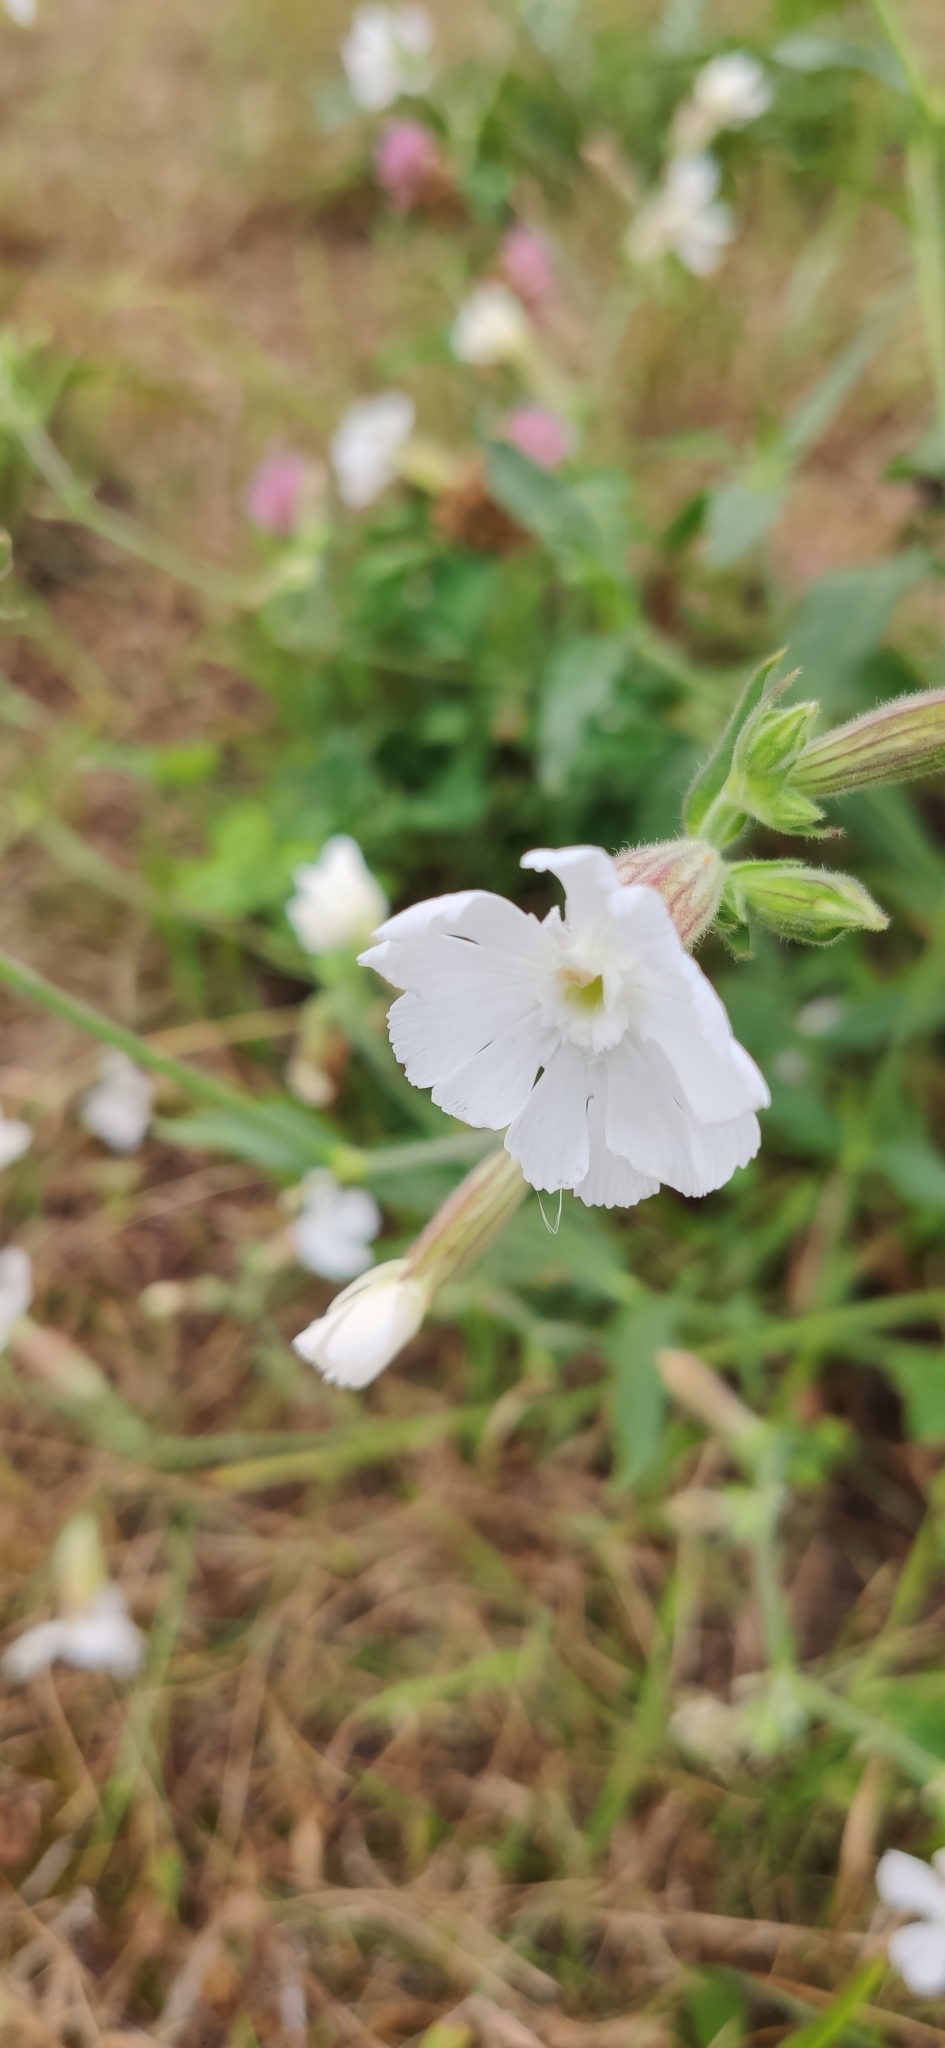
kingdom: Plantae
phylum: Tracheophyta
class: Magnoliopsida
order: Caryophyllales
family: Caryophyllaceae
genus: Silene
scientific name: Silene latifolia
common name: White campion
